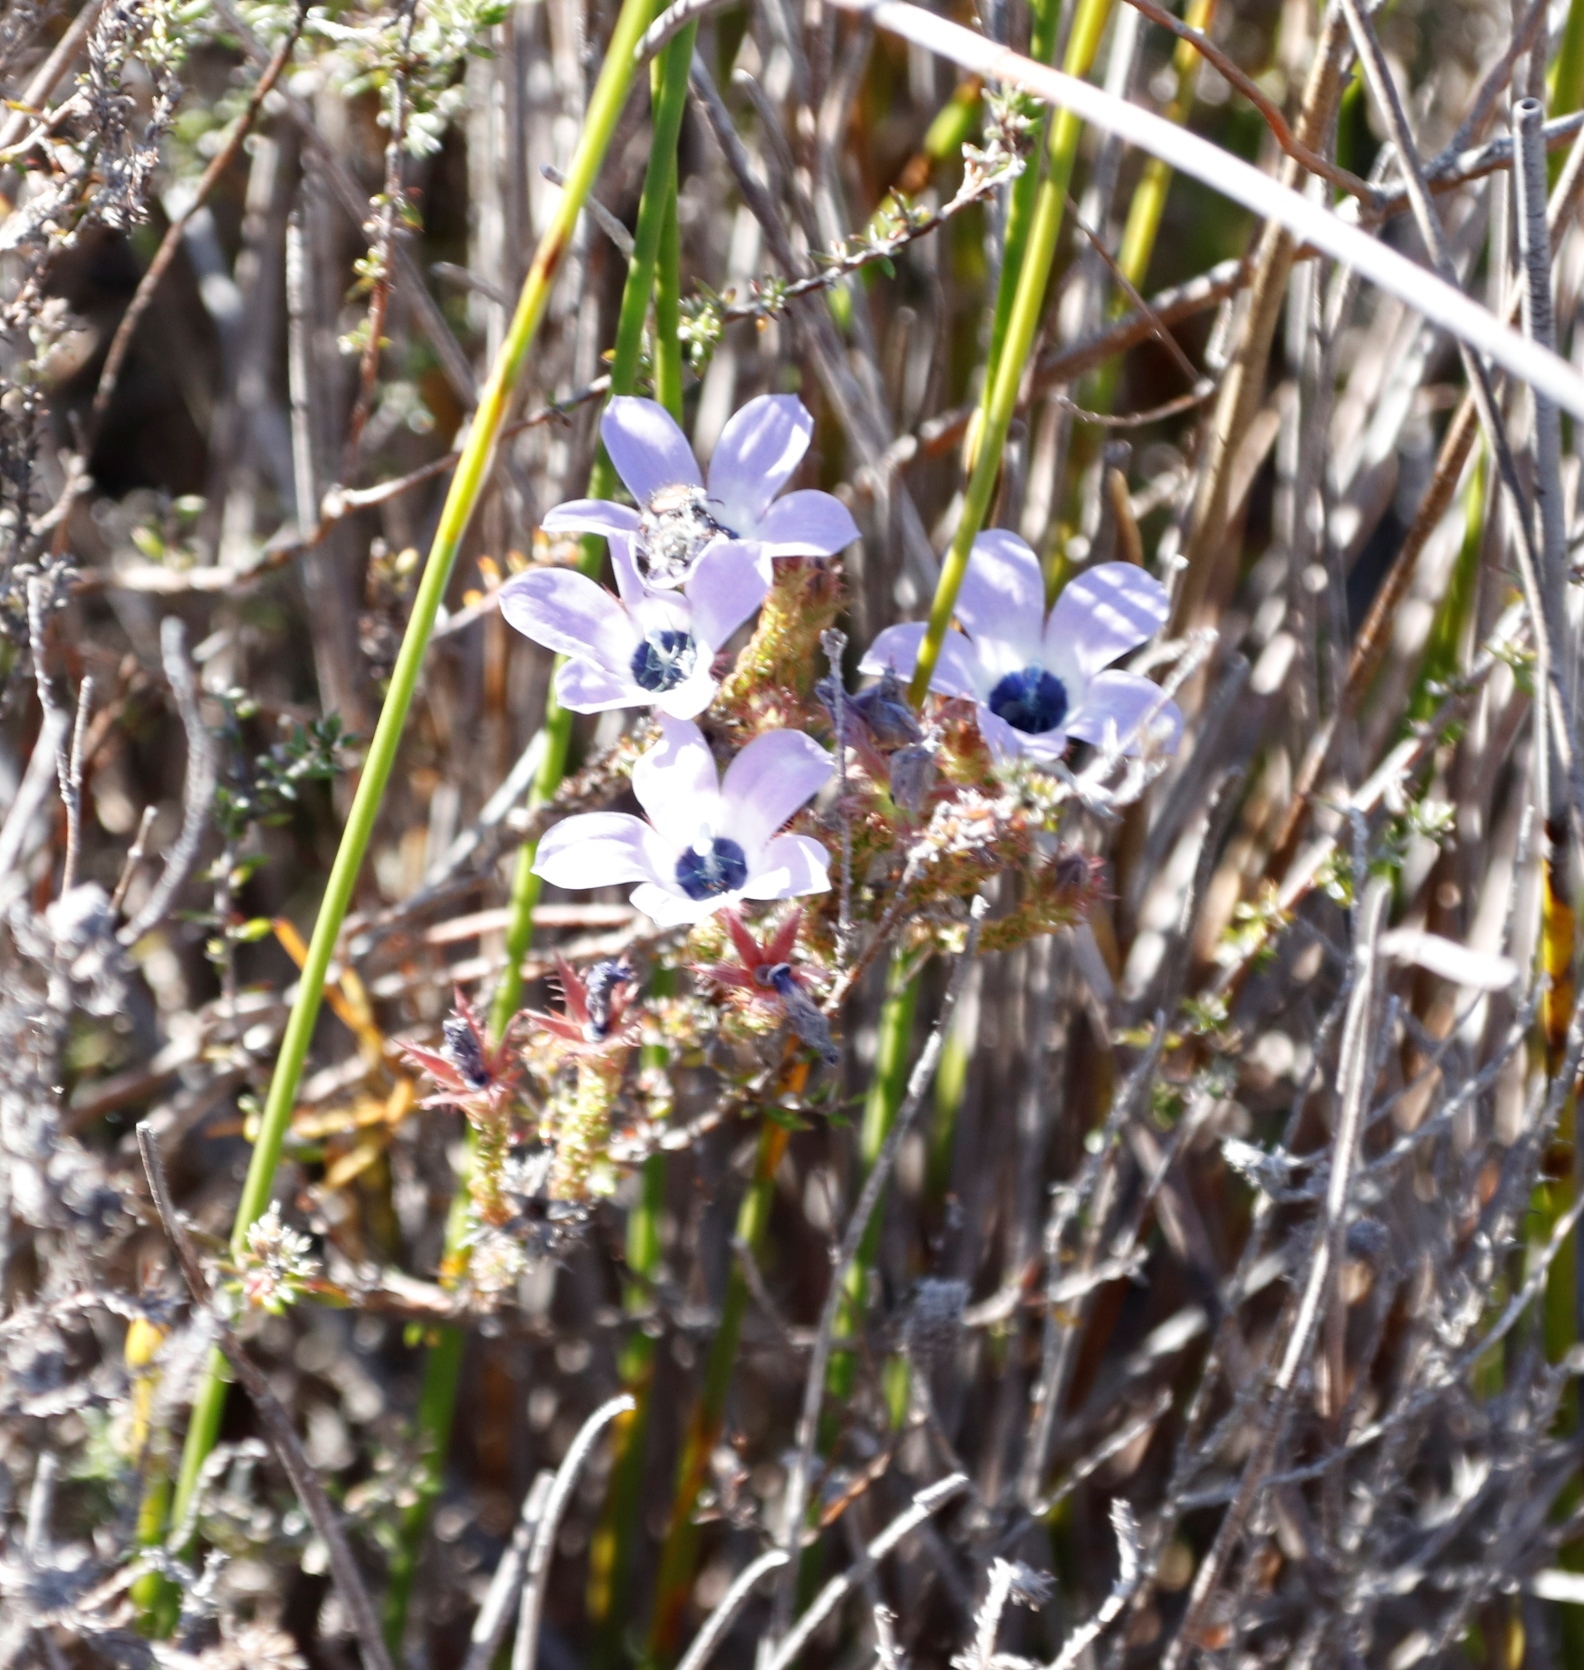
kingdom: Plantae
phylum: Tracheophyta
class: Magnoliopsida
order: Asterales
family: Campanulaceae
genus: Roella
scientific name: Roella triflora
